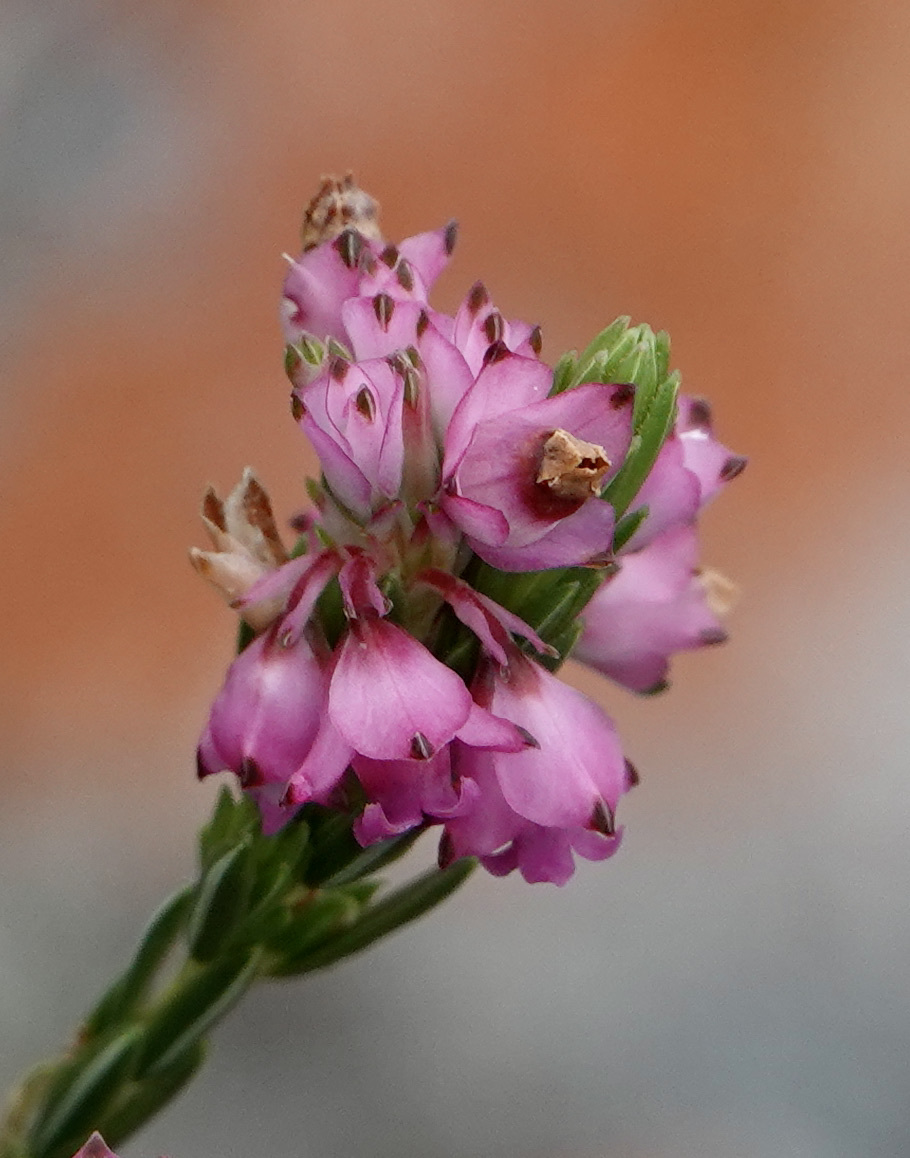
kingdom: Plantae
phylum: Tracheophyta
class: Magnoliopsida
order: Ericales
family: Ericaceae
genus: Erica
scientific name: Erica corifolia
